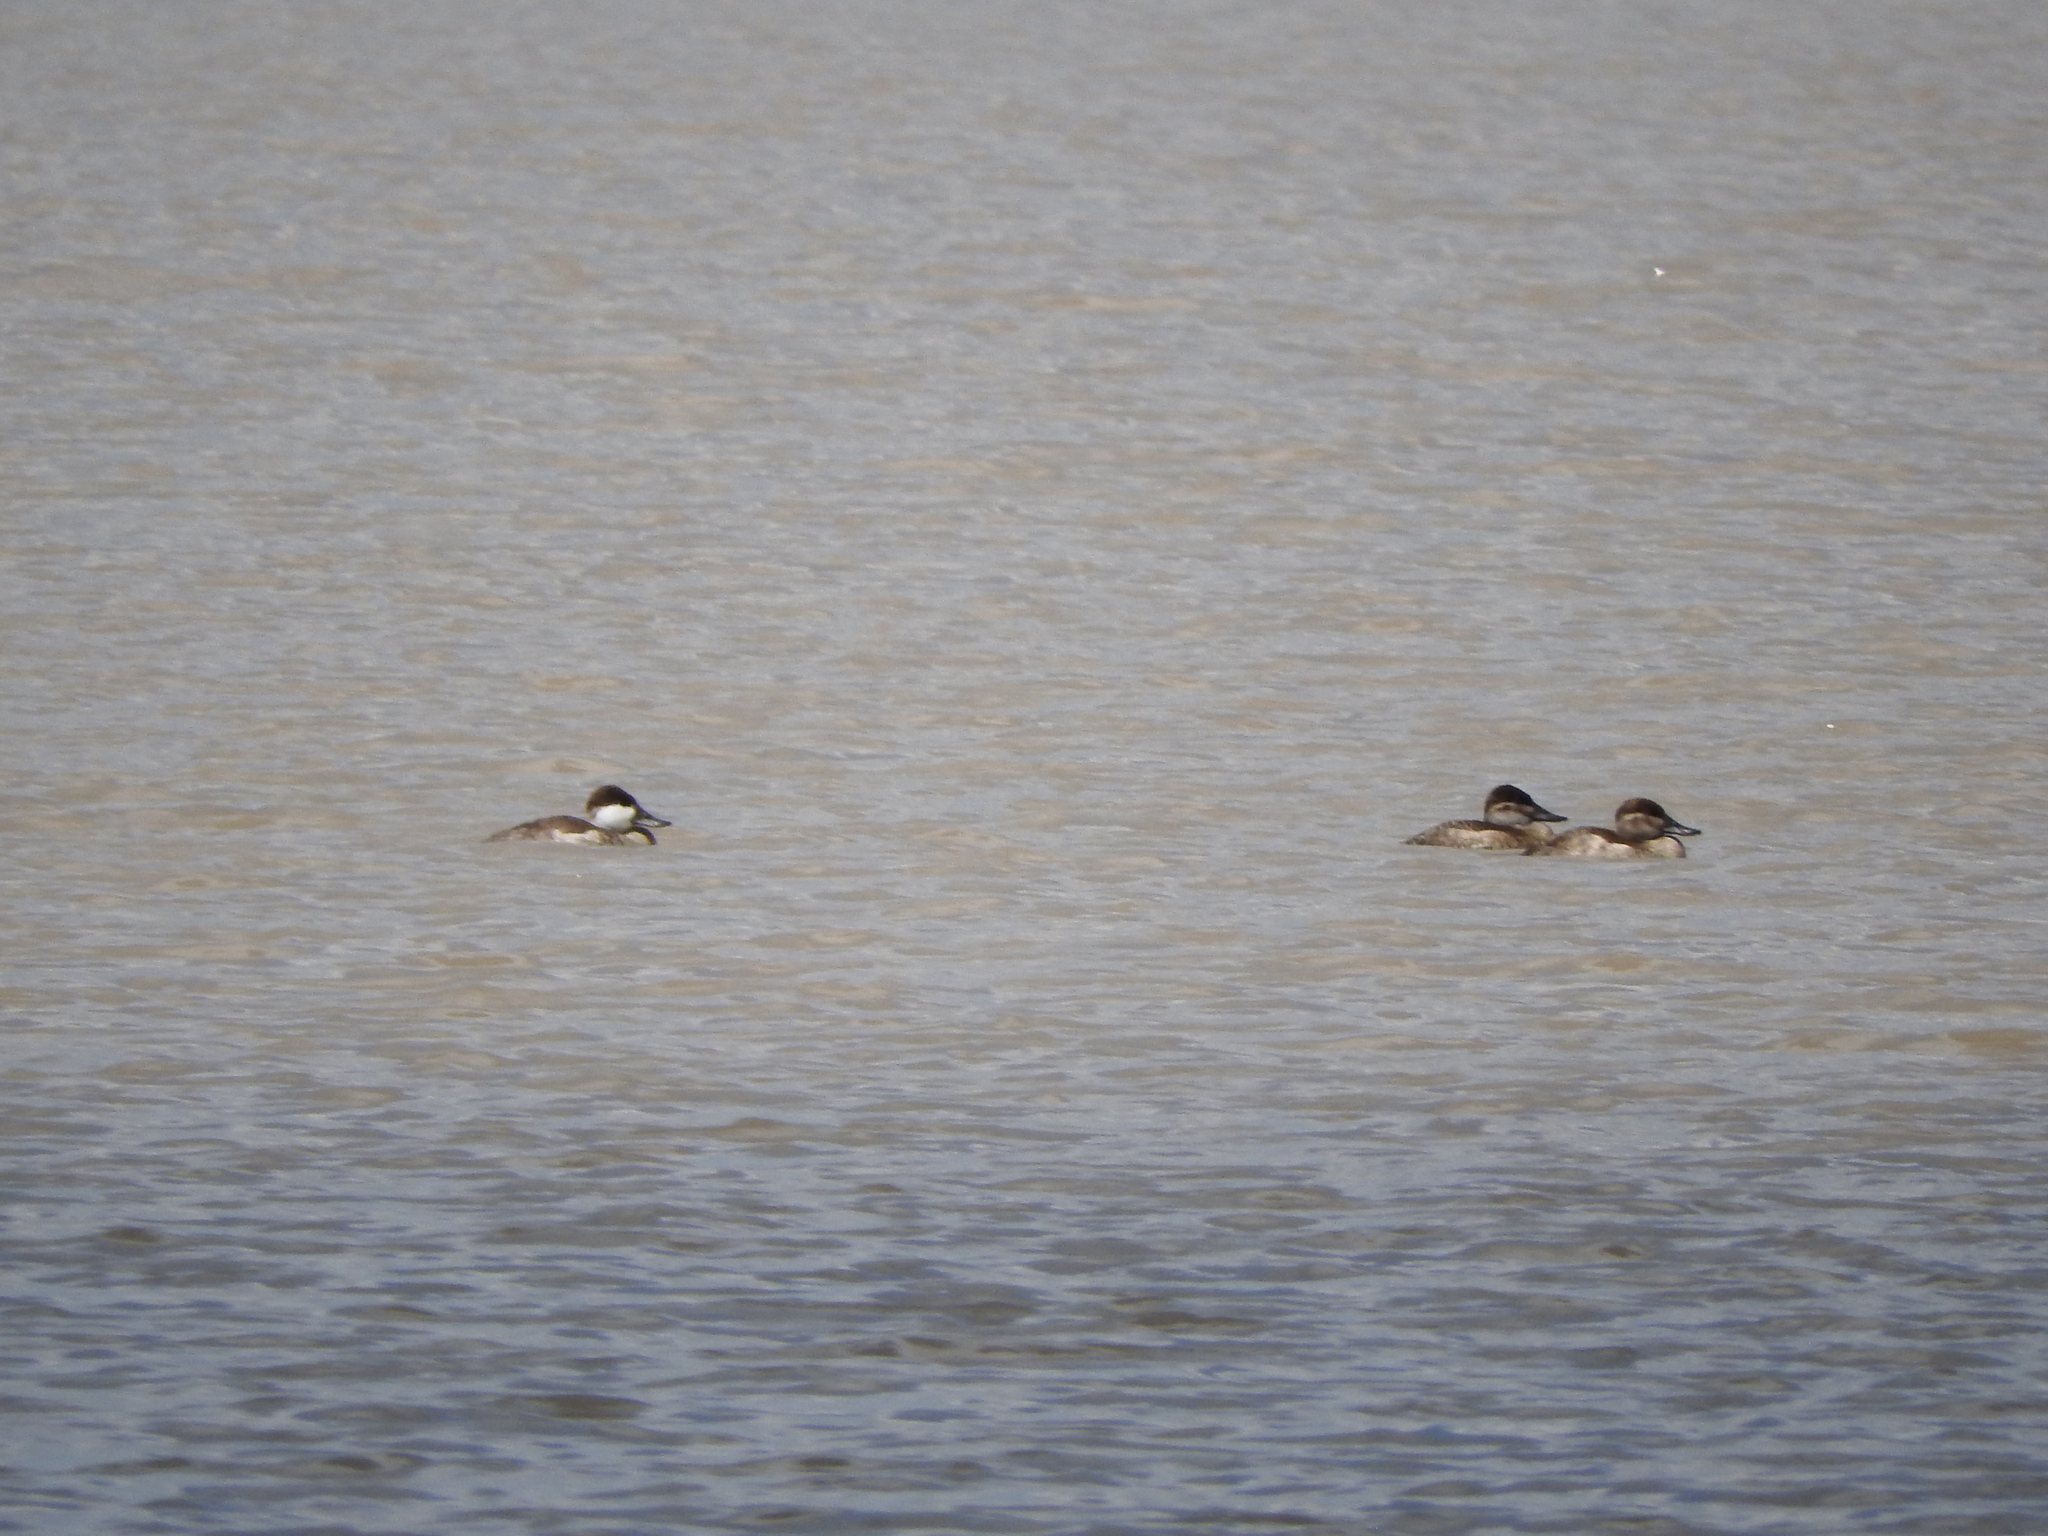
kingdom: Animalia
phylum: Chordata
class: Aves
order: Anseriformes
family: Anatidae
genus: Oxyura
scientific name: Oxyura jamaicensis
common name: Ruddy duck
